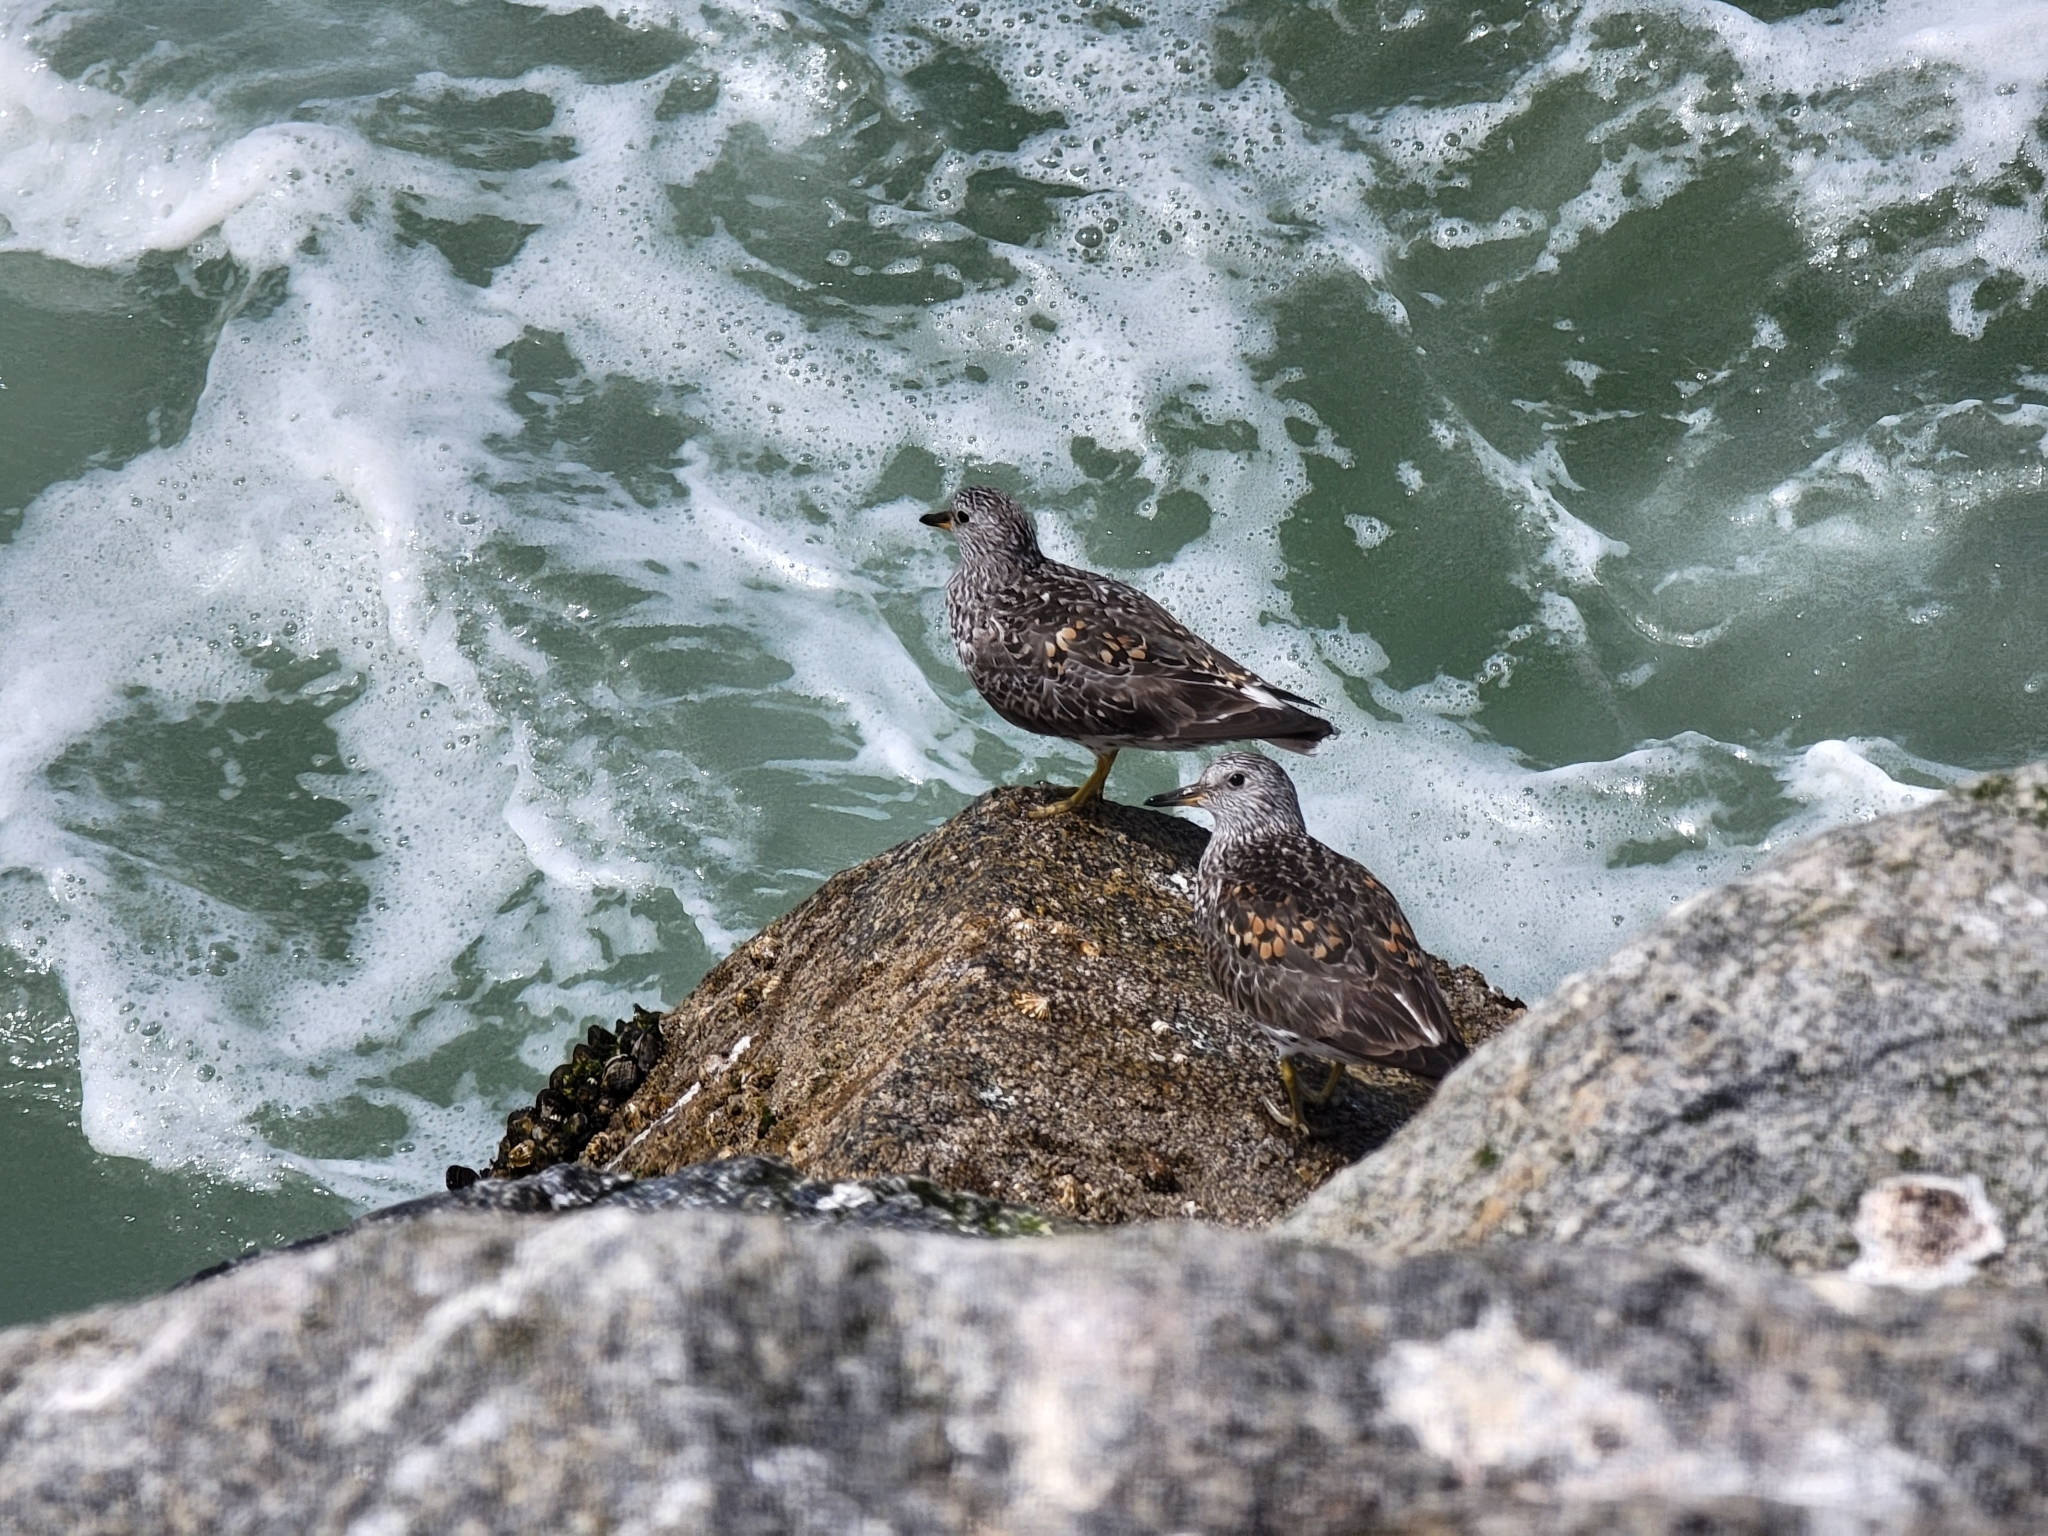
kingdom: Animalia
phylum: Chordata
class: Aves
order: Charadriiformes
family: Scolopacidae
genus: Calidris
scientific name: Calidris virgata
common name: Surfbird
